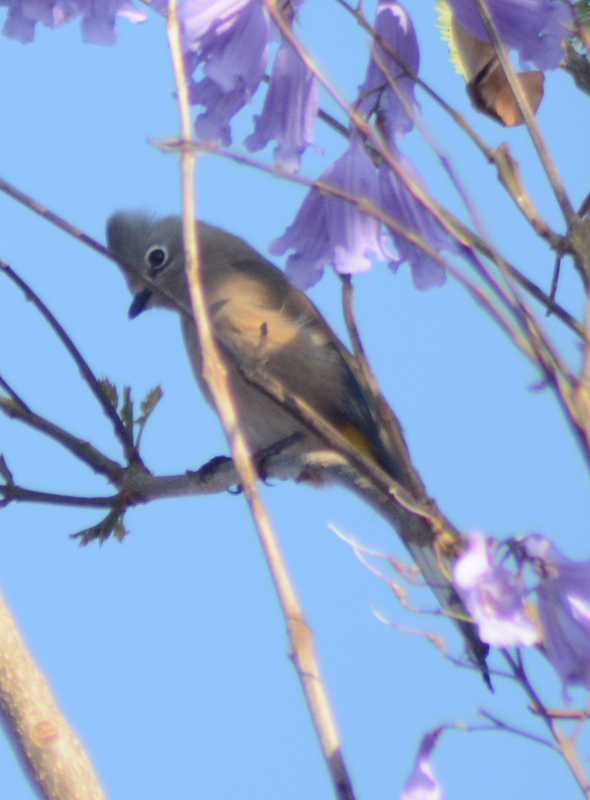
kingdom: Animalia
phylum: Chordata
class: Aves
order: Passeriformes
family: Ptilogonatidae
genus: Ptilogonys
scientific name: Ptilogonys cinereus
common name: Gray silky-flycatcher
